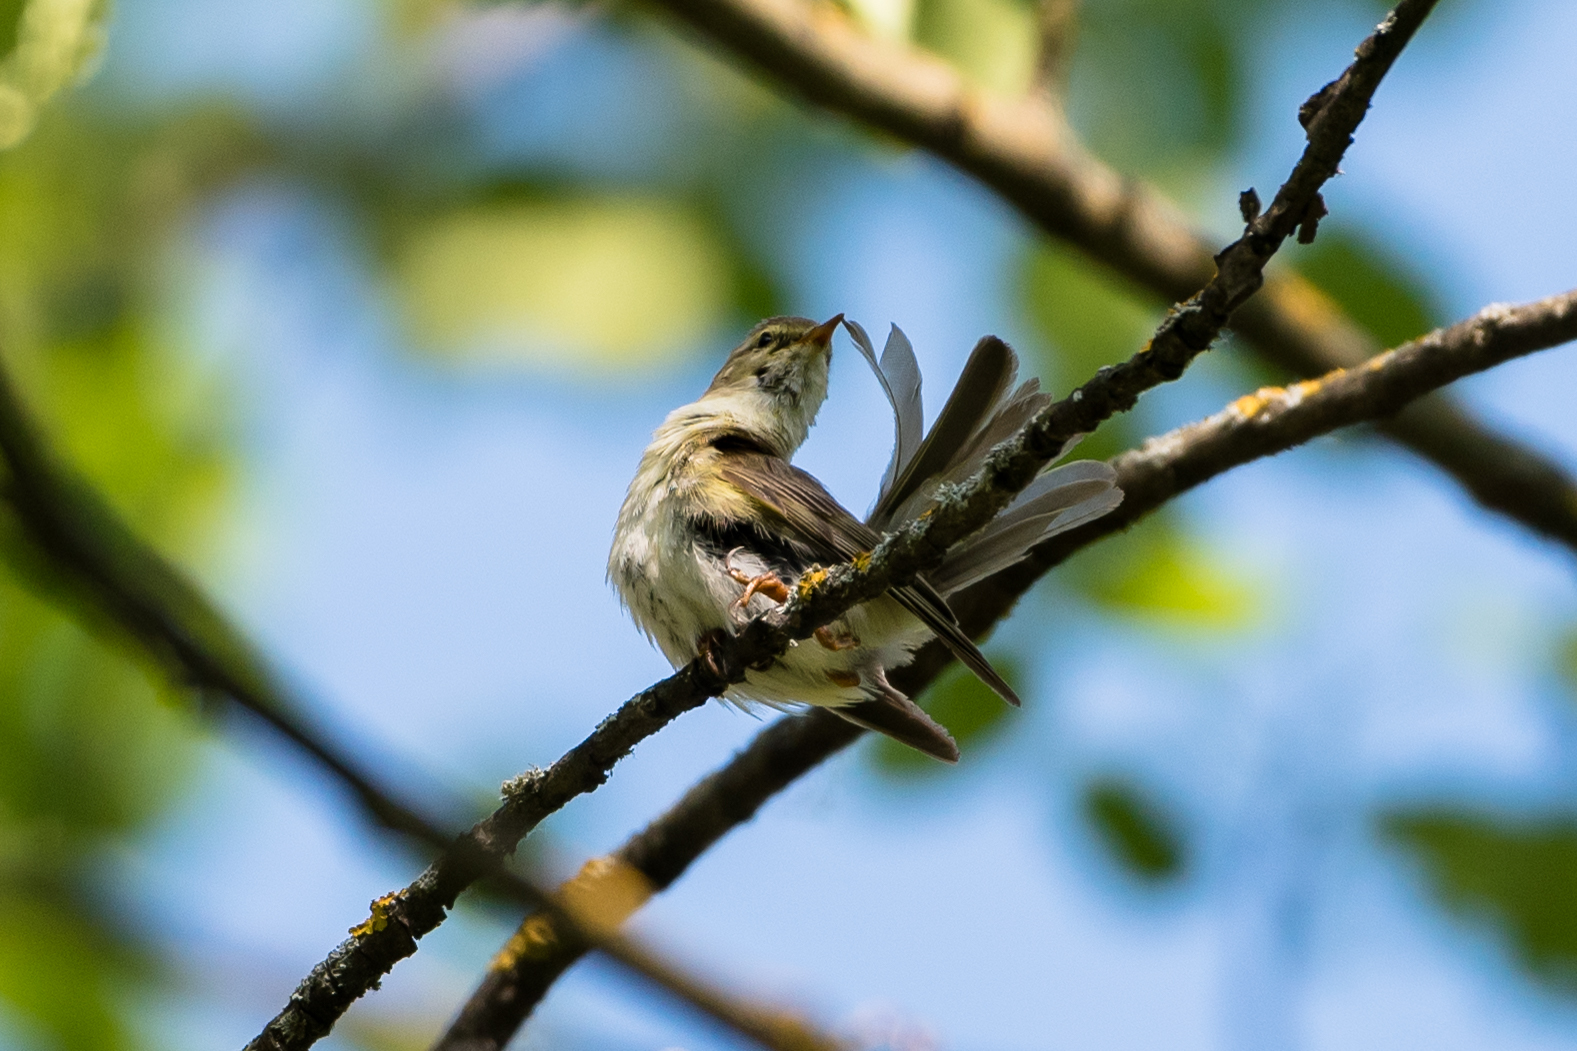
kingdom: Animalia
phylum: Chordata
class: Aves
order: Passeriformes
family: Phylloscopidae
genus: Phylloscopus
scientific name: Phylloscopus trochilus
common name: Willow warbler
